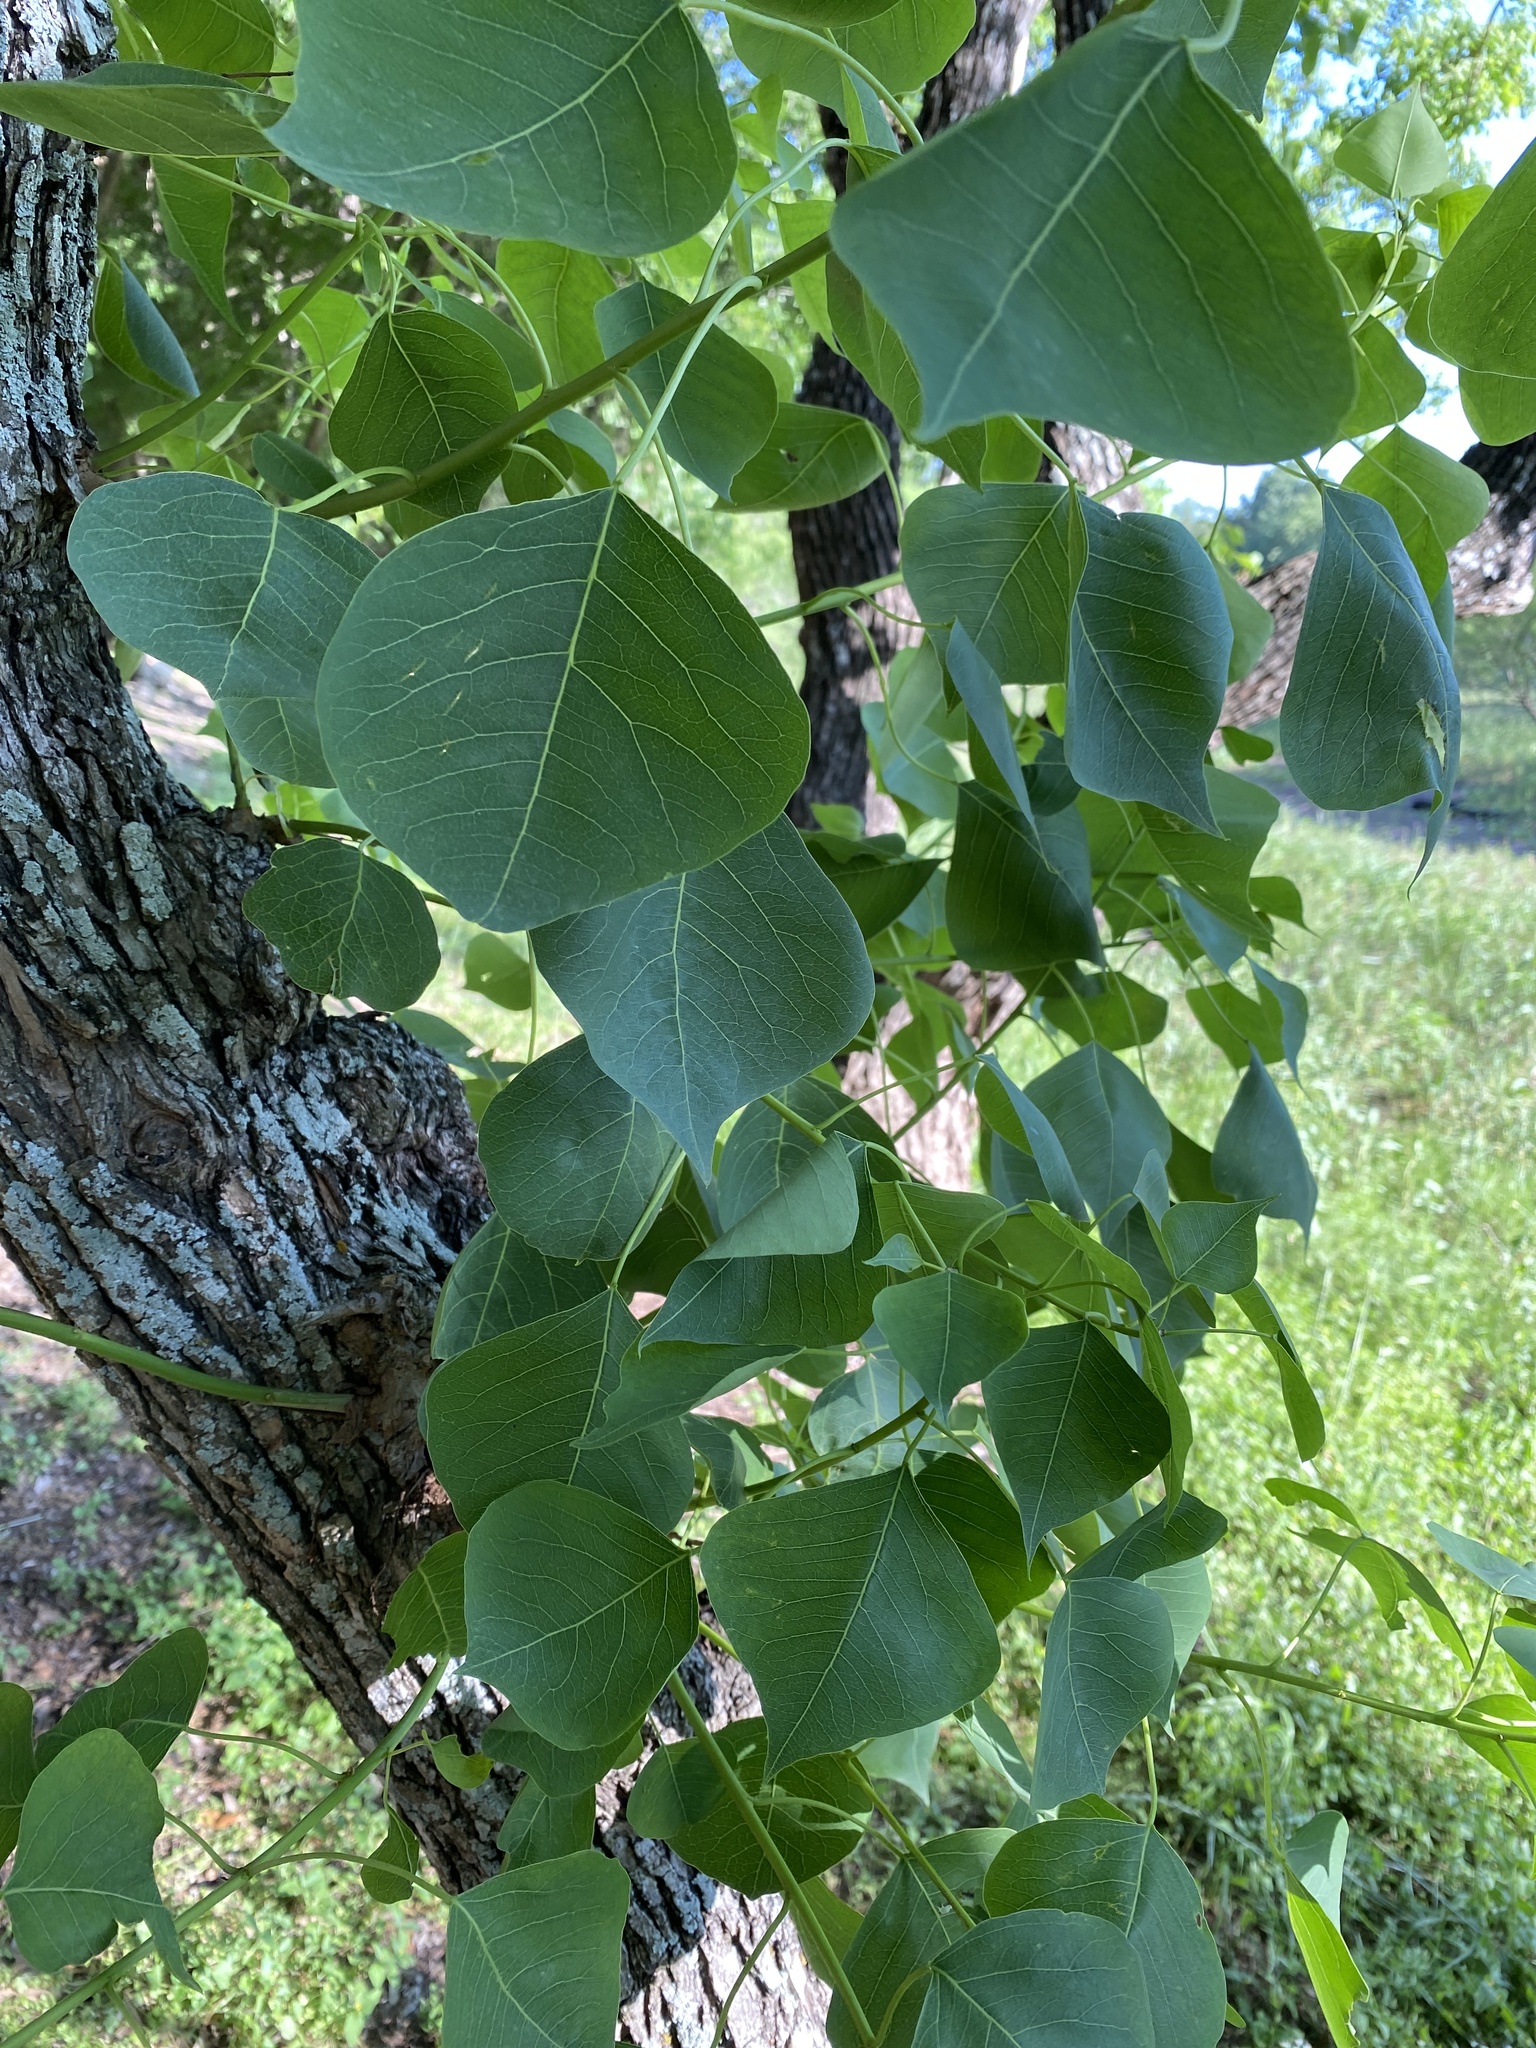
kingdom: Plantae
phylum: Tracheophyta
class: Magnoliopsida
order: Malpighiales
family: Euphorbiaceae
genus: Triadica
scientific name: Triadica sebifera
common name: Chinese tallow
